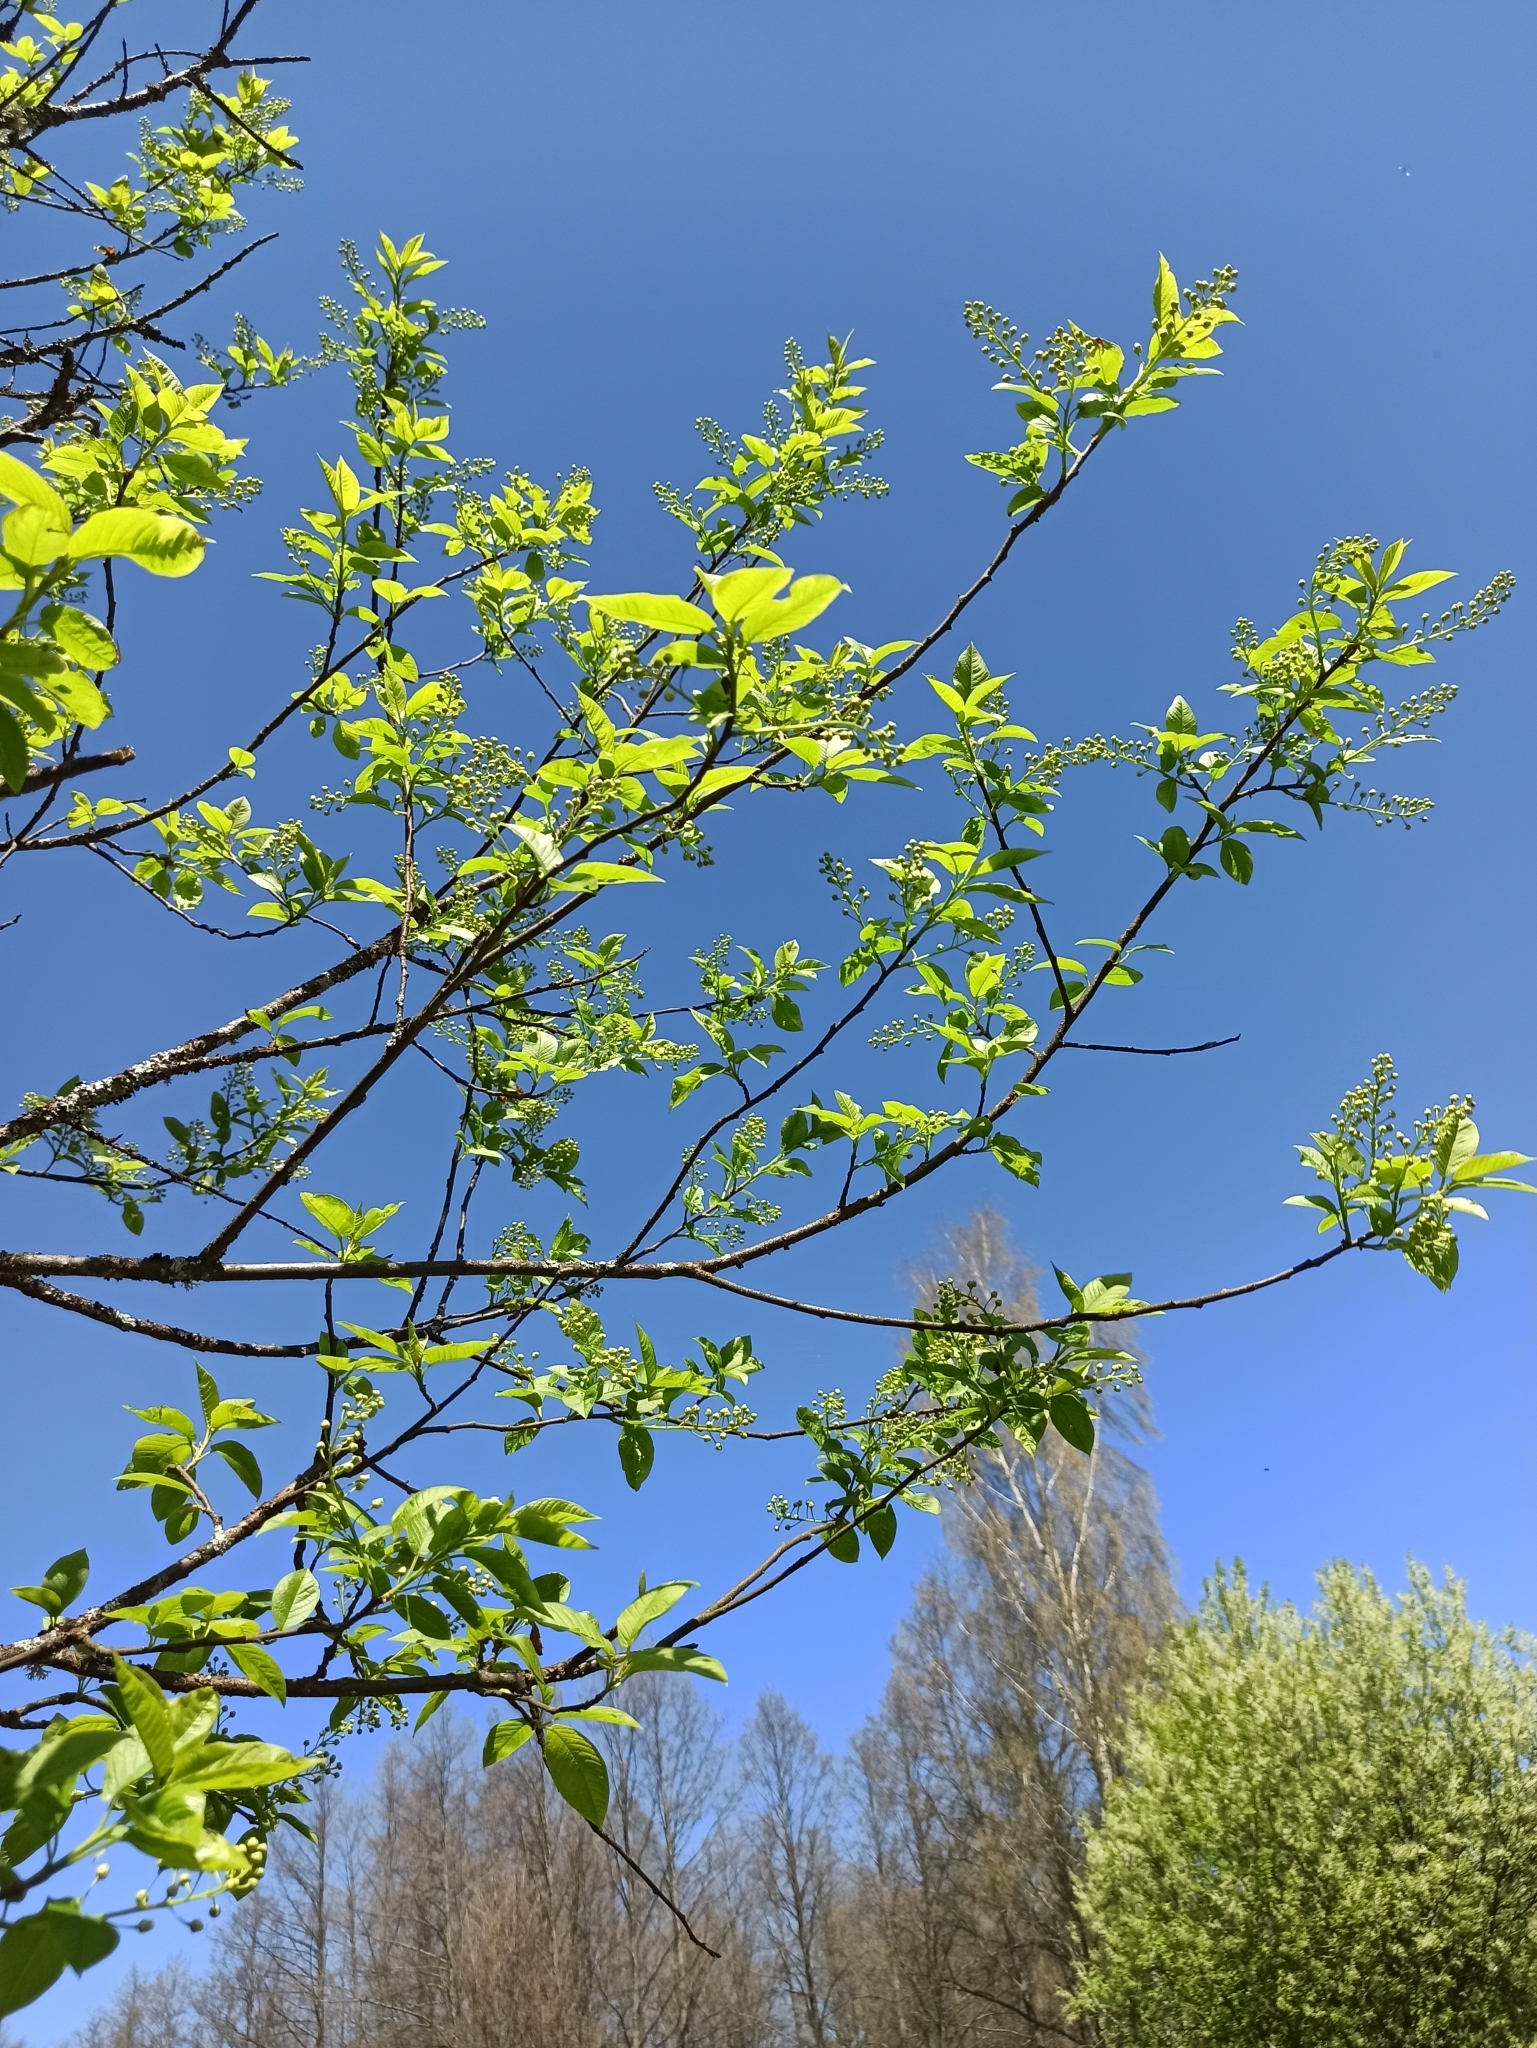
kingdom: Plantae
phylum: Tracheophyta
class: Magnoliopsida
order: Rosales
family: Rosaceae
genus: Prunus
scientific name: Prunus padus
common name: Bird cherry
